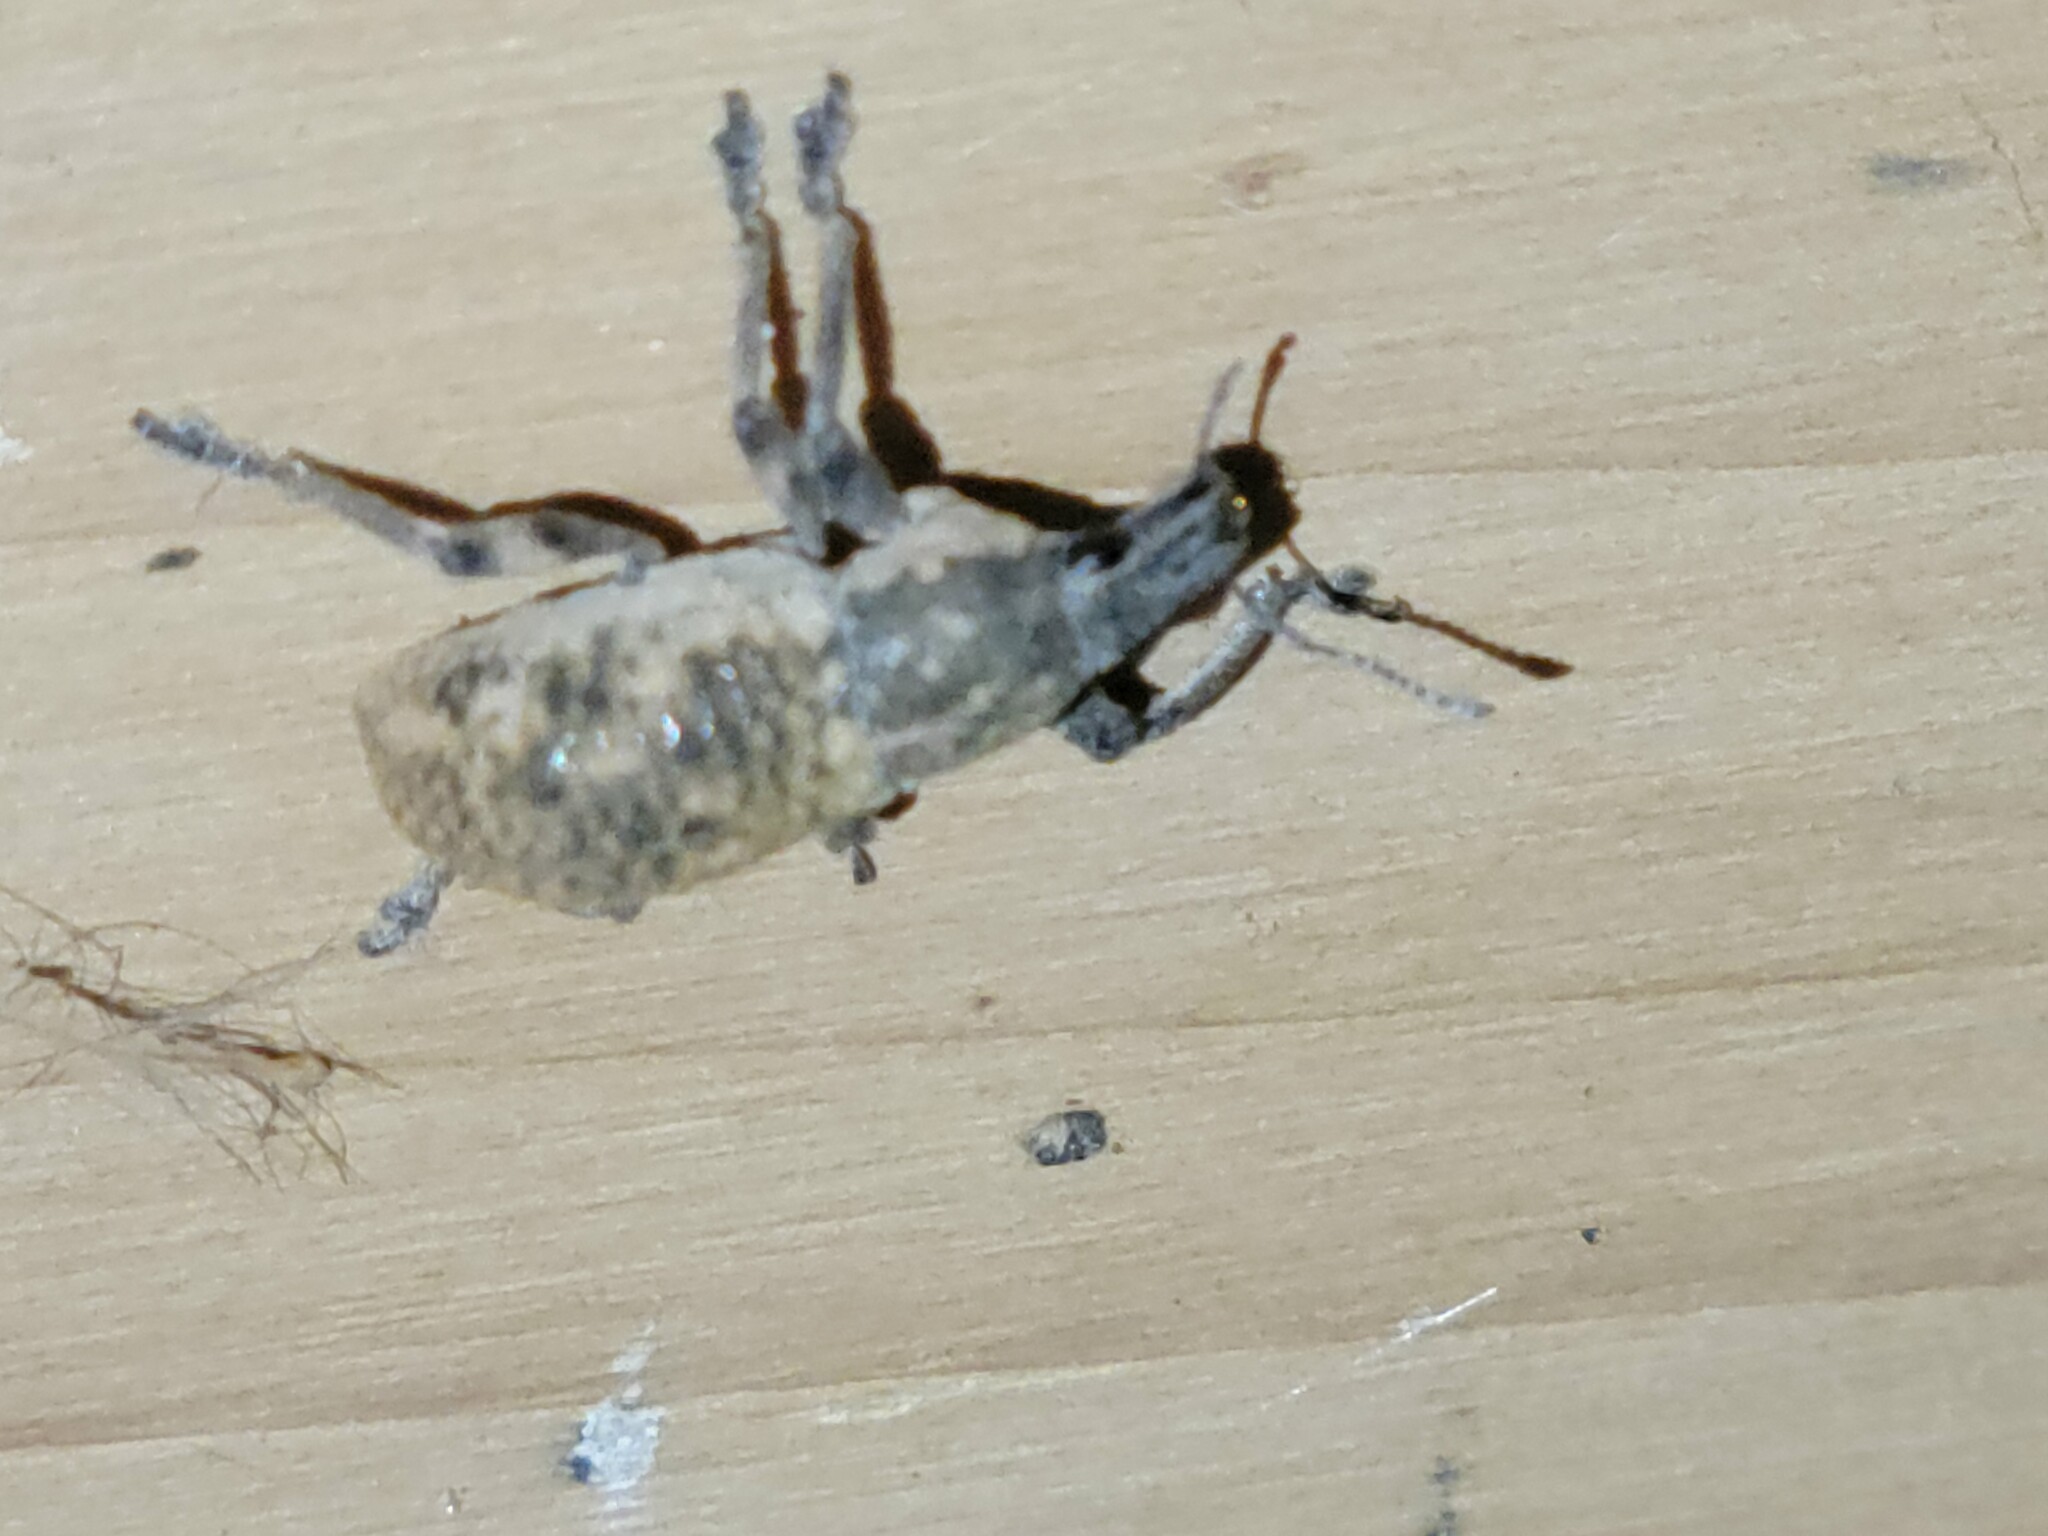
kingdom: Animalia
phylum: Arthropoda
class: Insecta
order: Coleoptera
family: Curculionidae
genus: Epicaerus
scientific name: Epicaerus mexicanus
